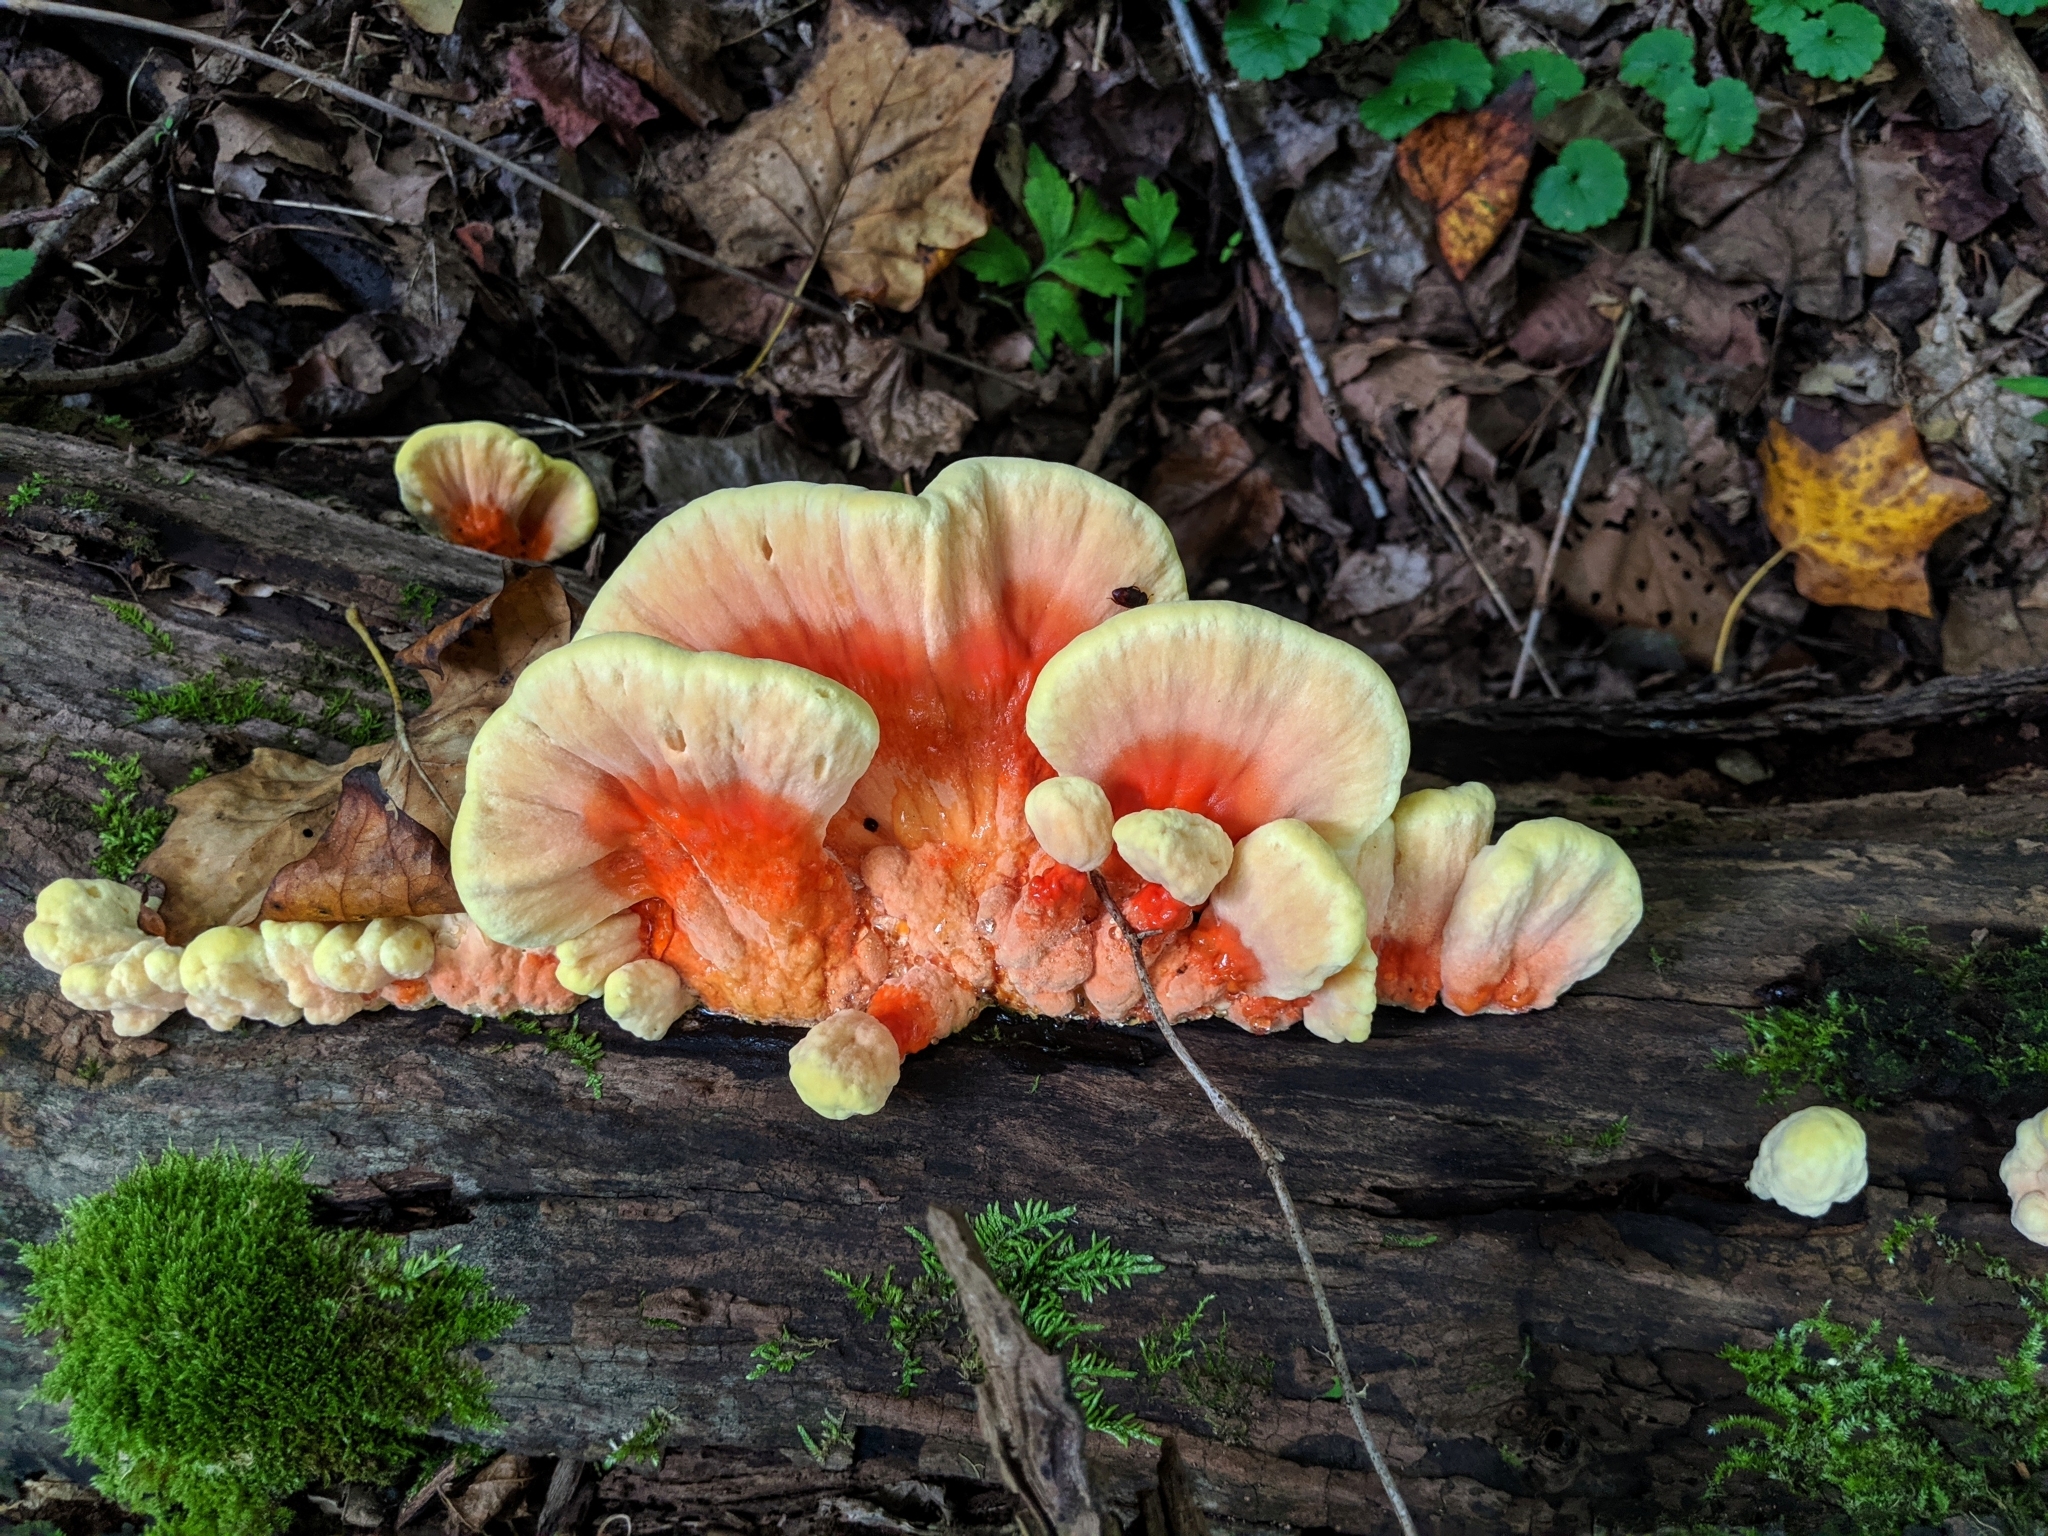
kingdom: Fungi
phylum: Basidiomycota
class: Agaricomycetes
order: Polyporales
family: Laetiporaceae
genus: Laetiporus
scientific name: Laetiporus sulphureus
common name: Chicken of the woods
